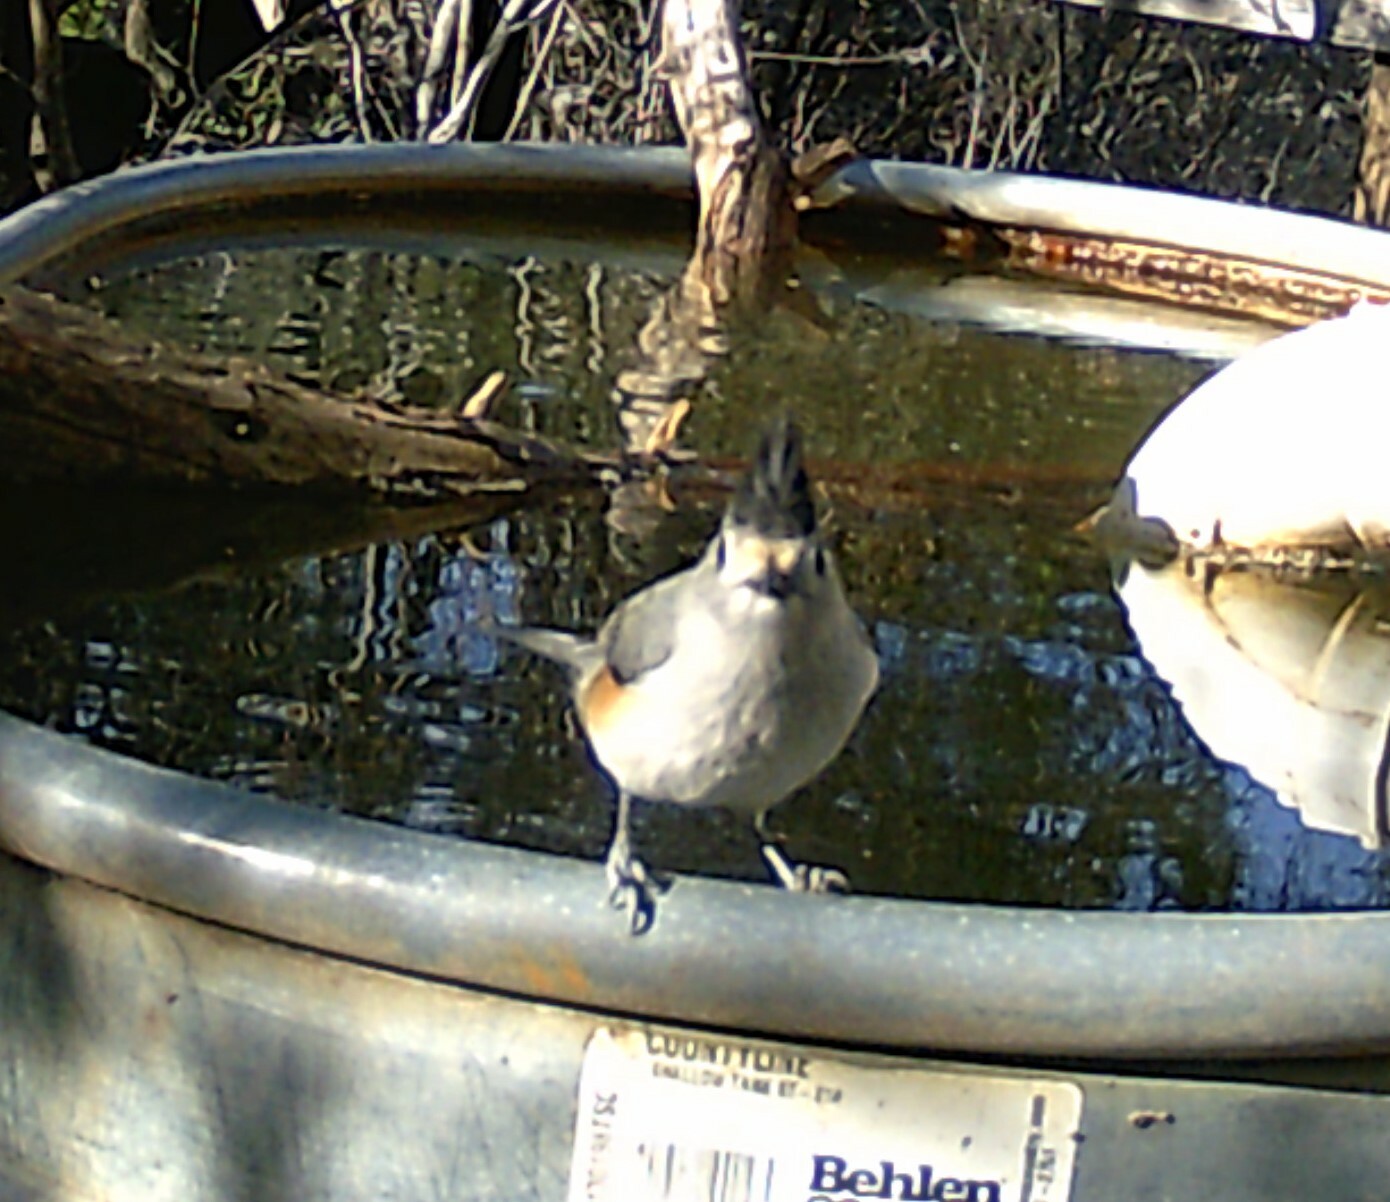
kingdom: Animalia
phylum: Chordata
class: Aves
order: Passeriformes
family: Paridae
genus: Baeolophus
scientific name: Baeolophus atricristatus
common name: Black-crested titmouse
